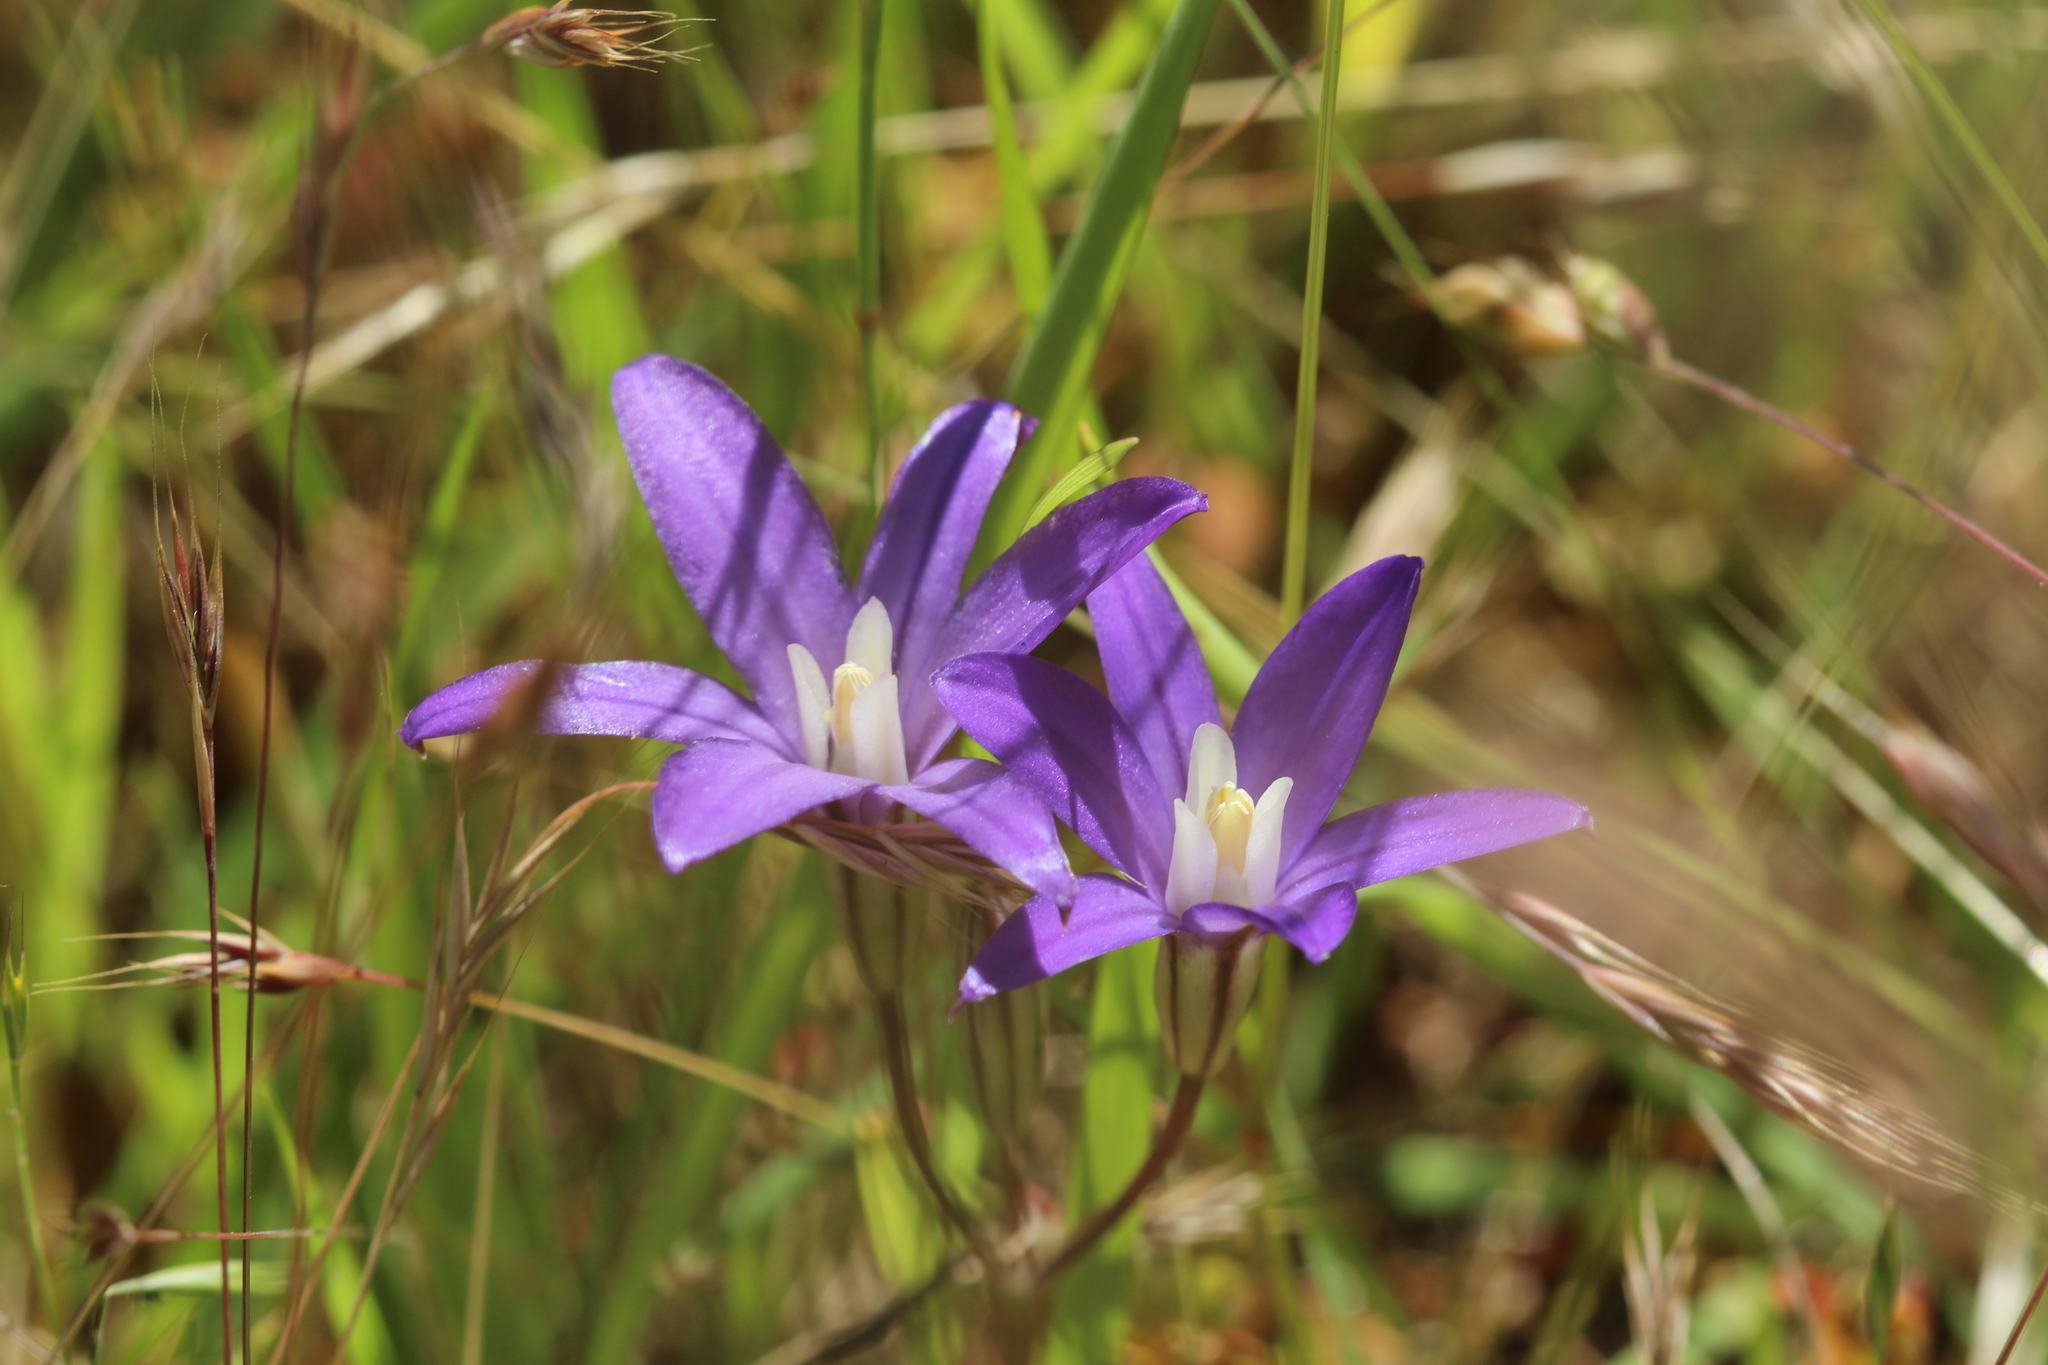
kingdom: Plantae
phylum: Tracheophyta
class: Liliopsida
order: Asparagales
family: Asparagaceae
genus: Brodiaea
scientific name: Brodiaea coronaria
